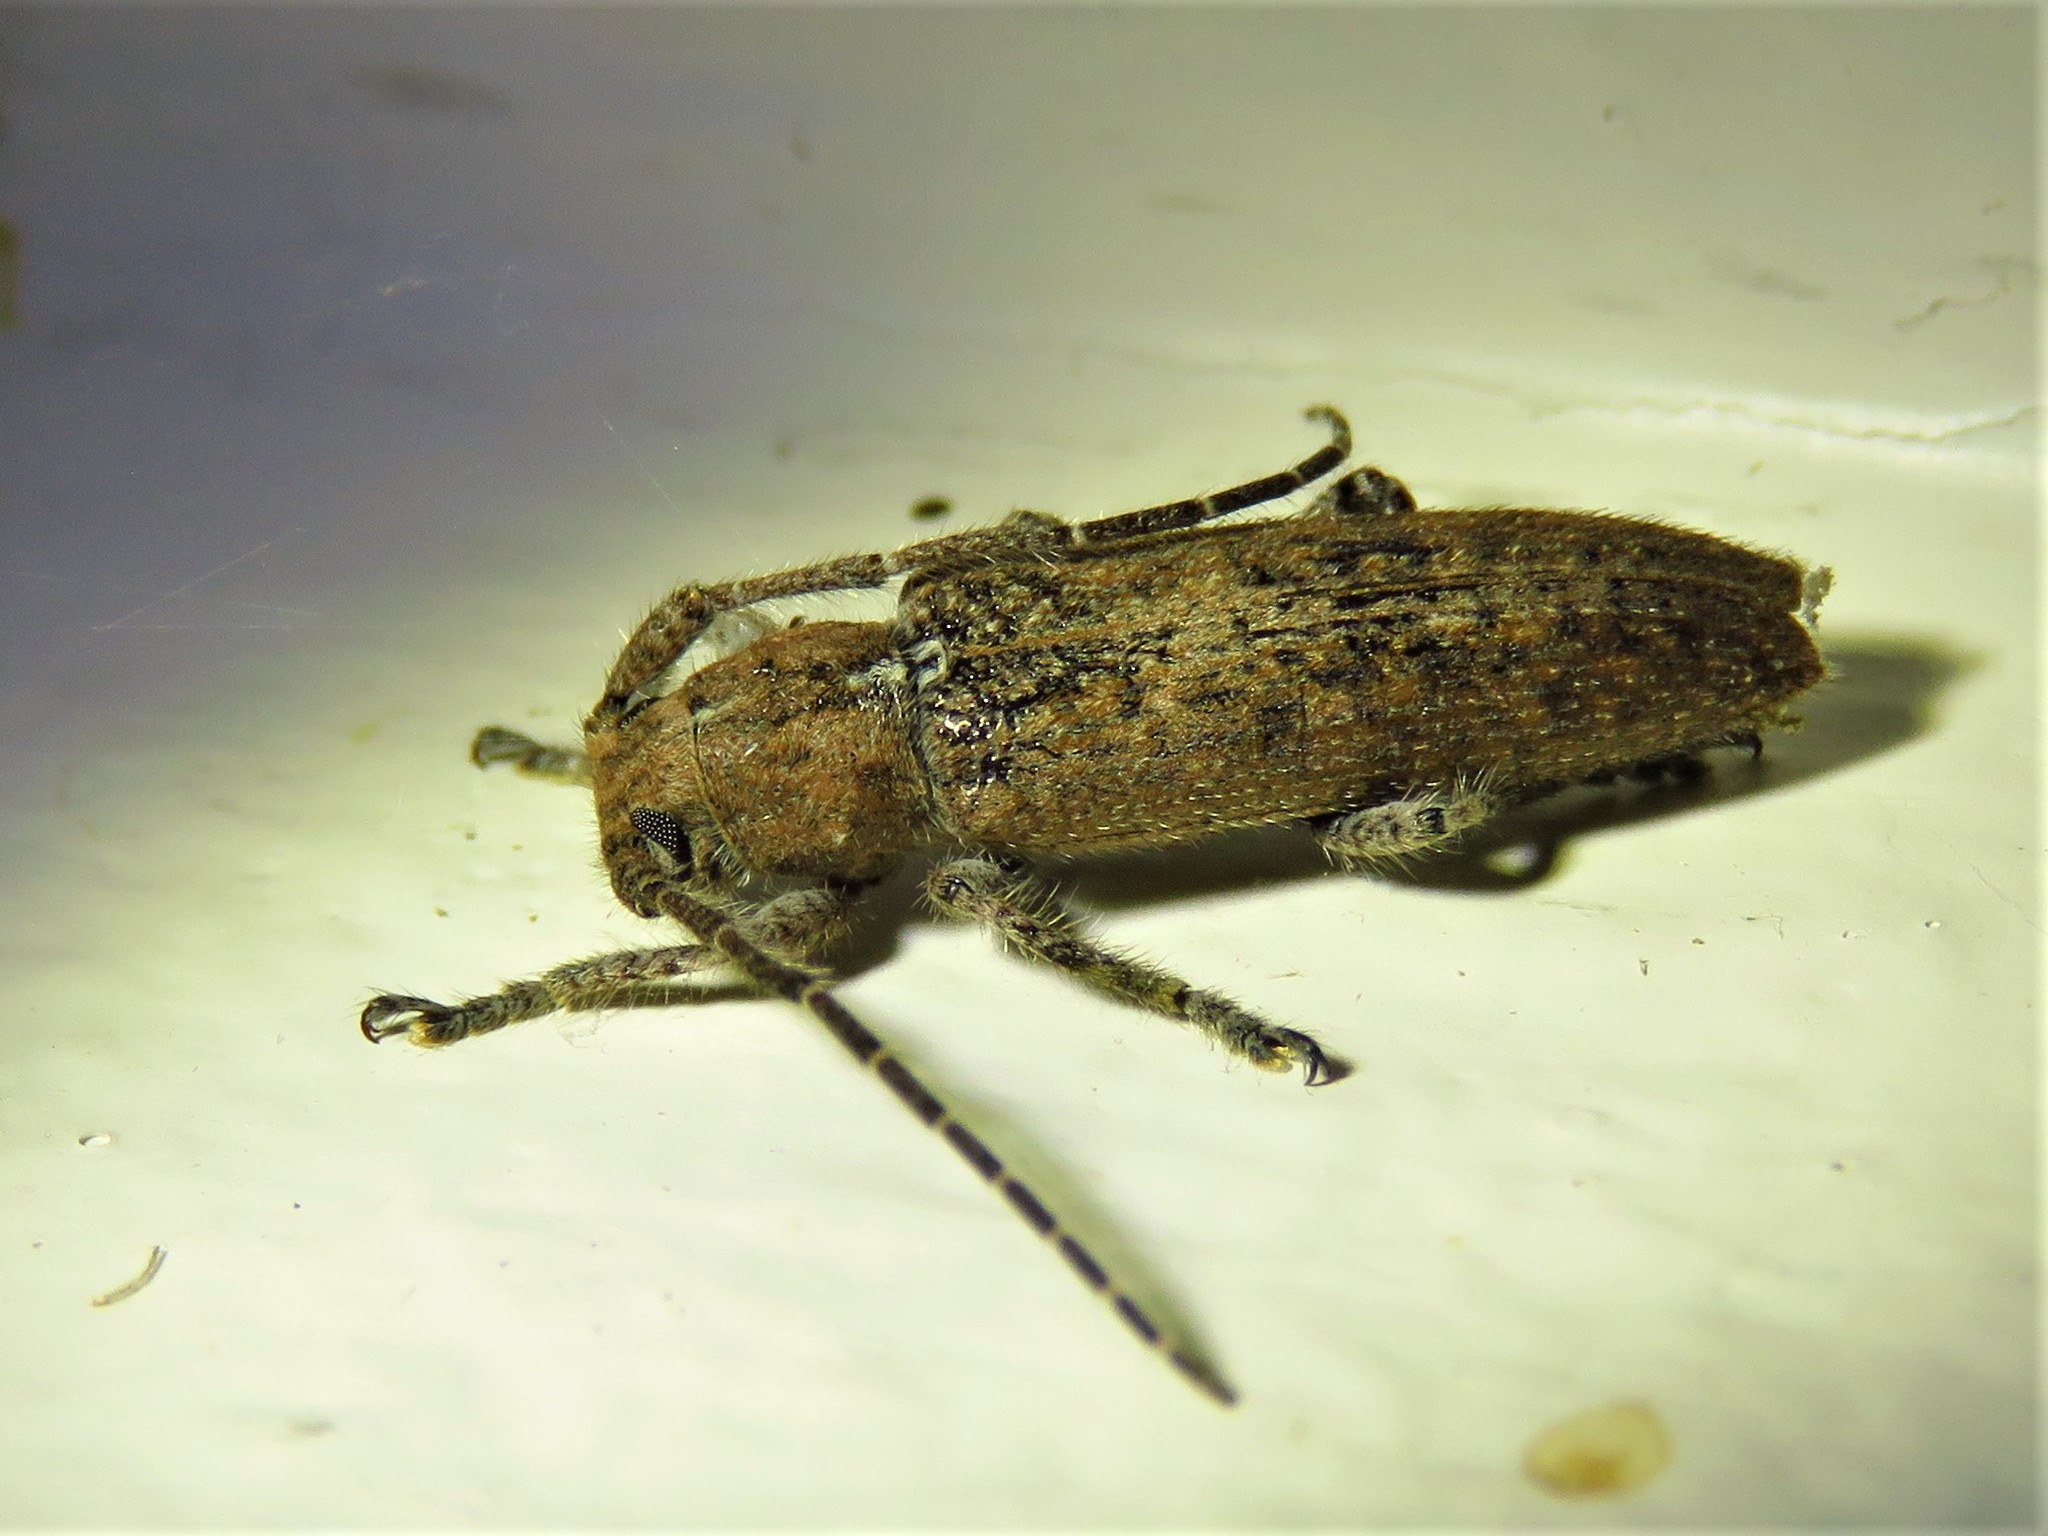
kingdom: Animalia
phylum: Arthropoda
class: Insecta
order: Coleoptera
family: Cerambycidae
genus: Ataxia
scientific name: Ataxia crypta
